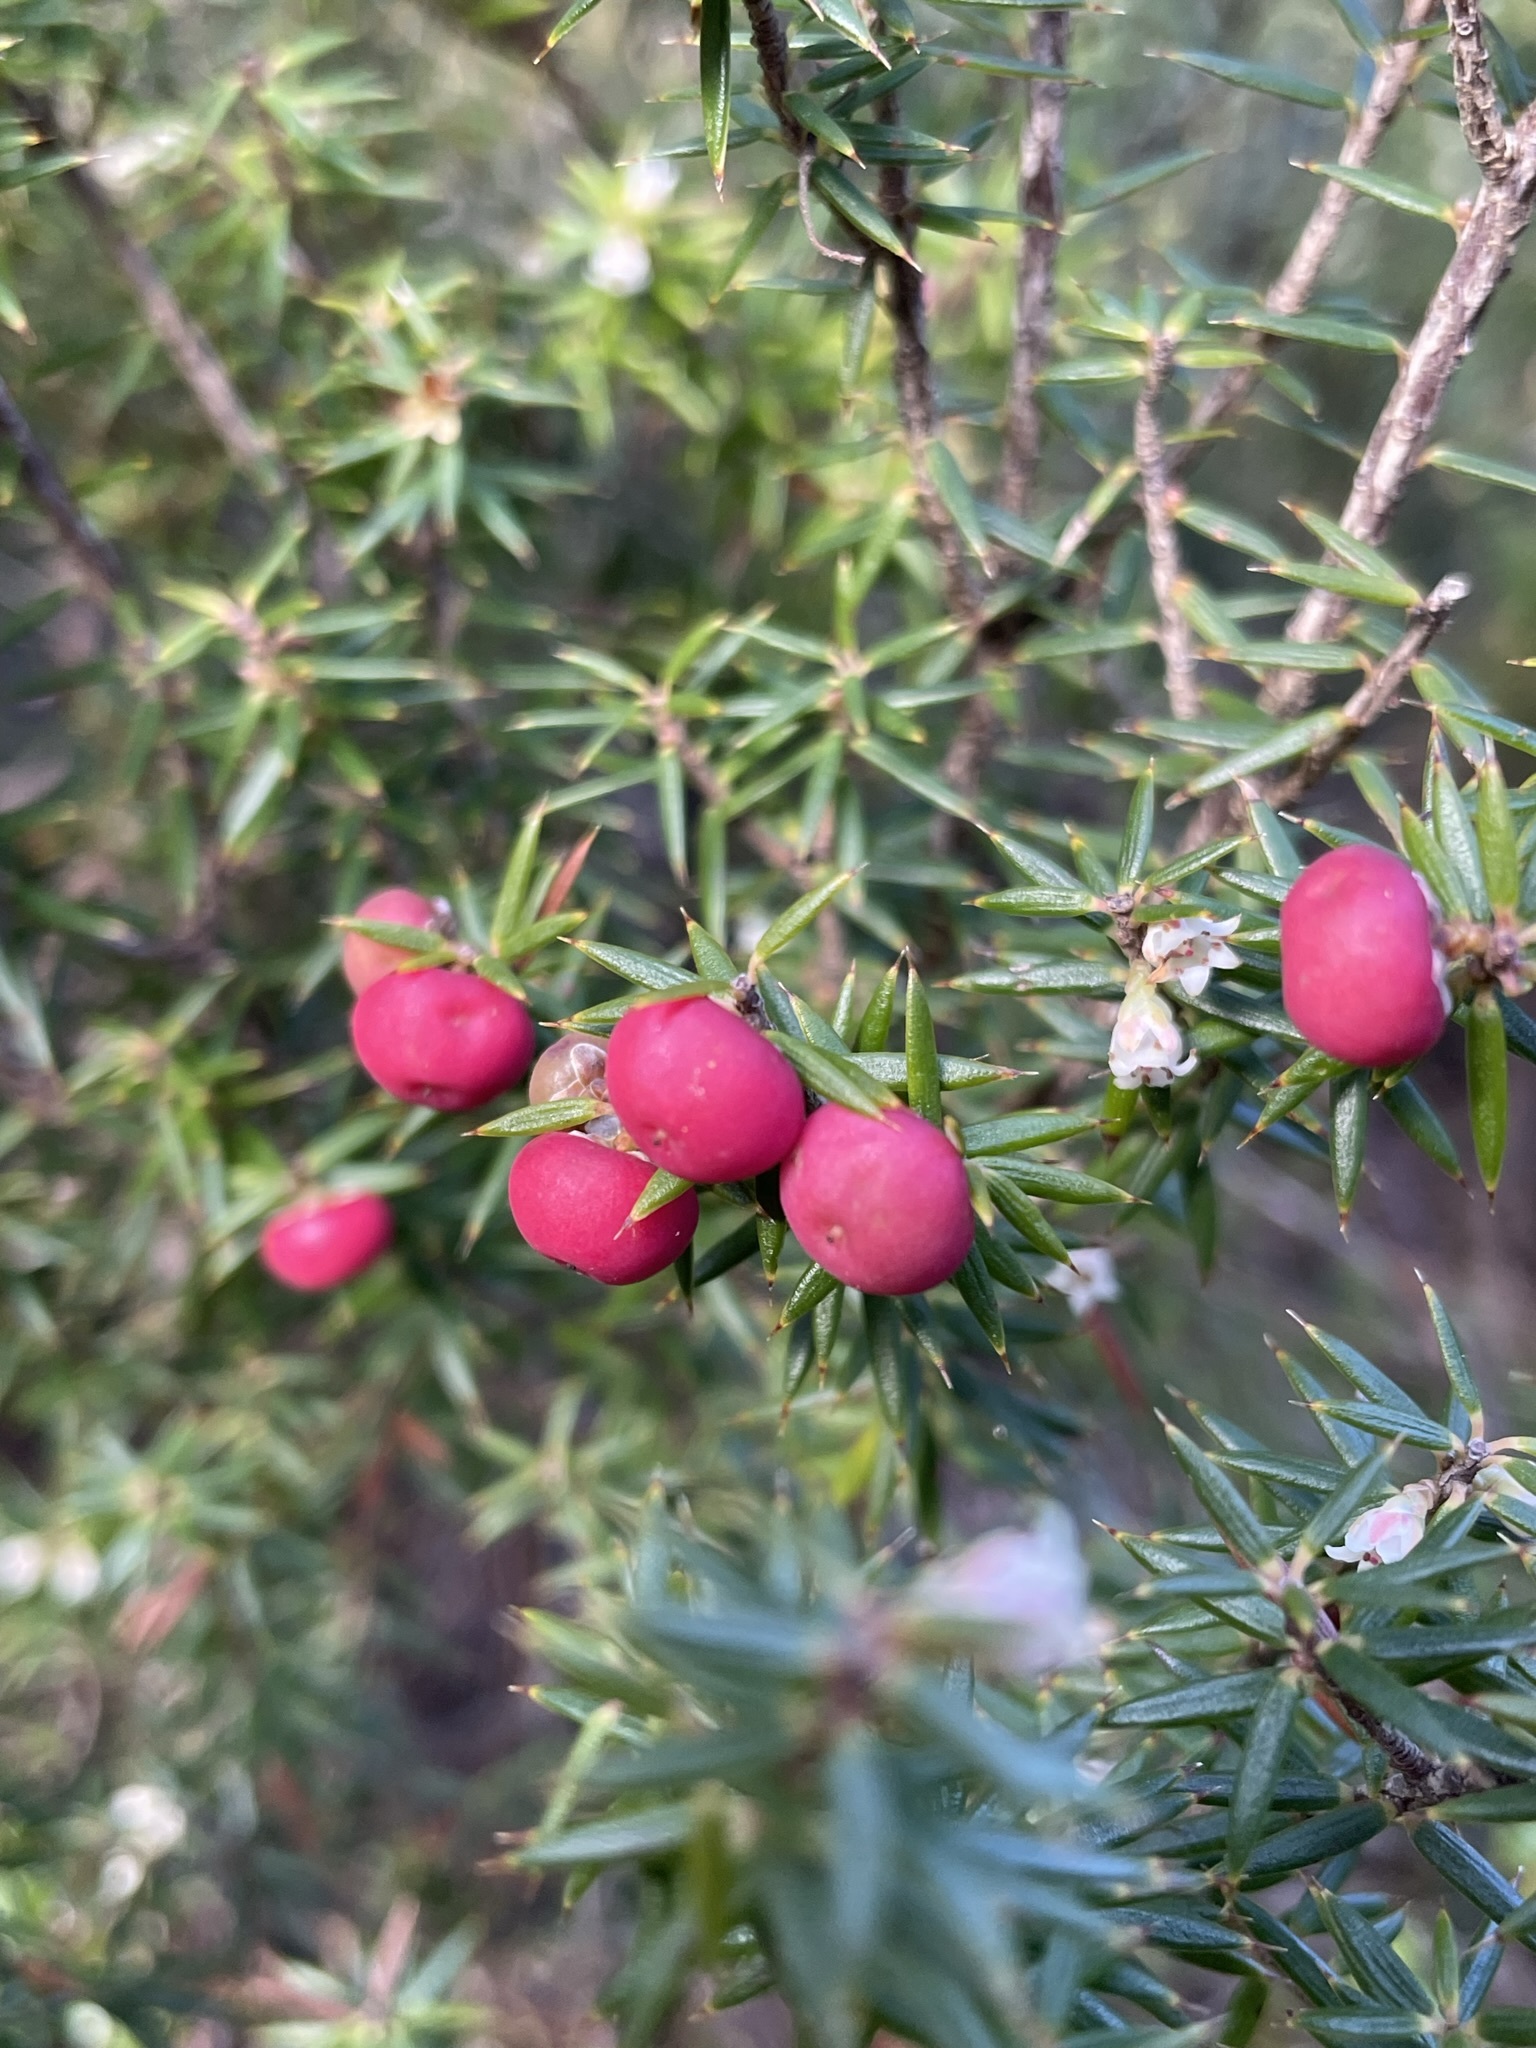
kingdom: Plantae
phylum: Tracheophyta
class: Magnoliopsida
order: Ericales
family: Ericaceae
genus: Leptecophylla
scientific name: Leptecophylla parvifolia
